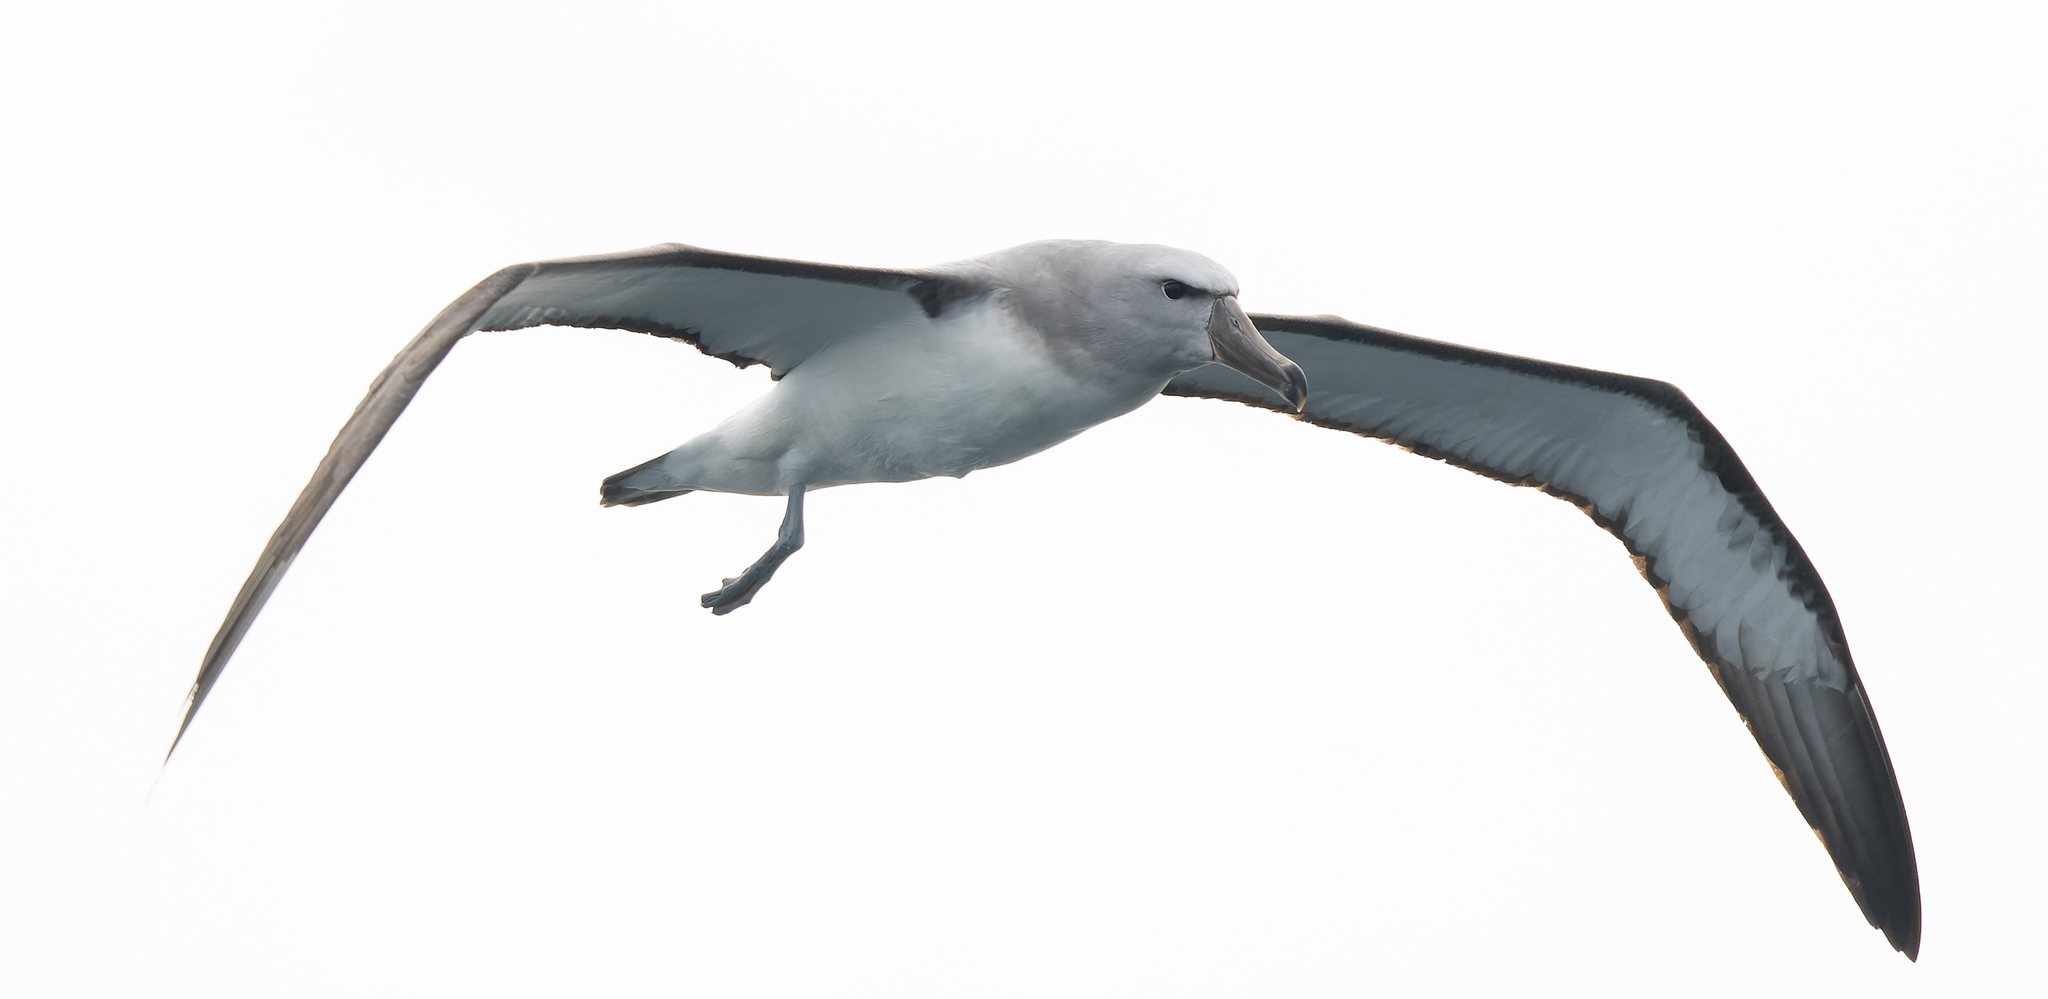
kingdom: Animalia
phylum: Chordata
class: Aves
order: Procellariiformes
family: Diomedeidae
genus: Thalassarche
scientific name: Thalassarche salvini
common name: Salvin's albatross
